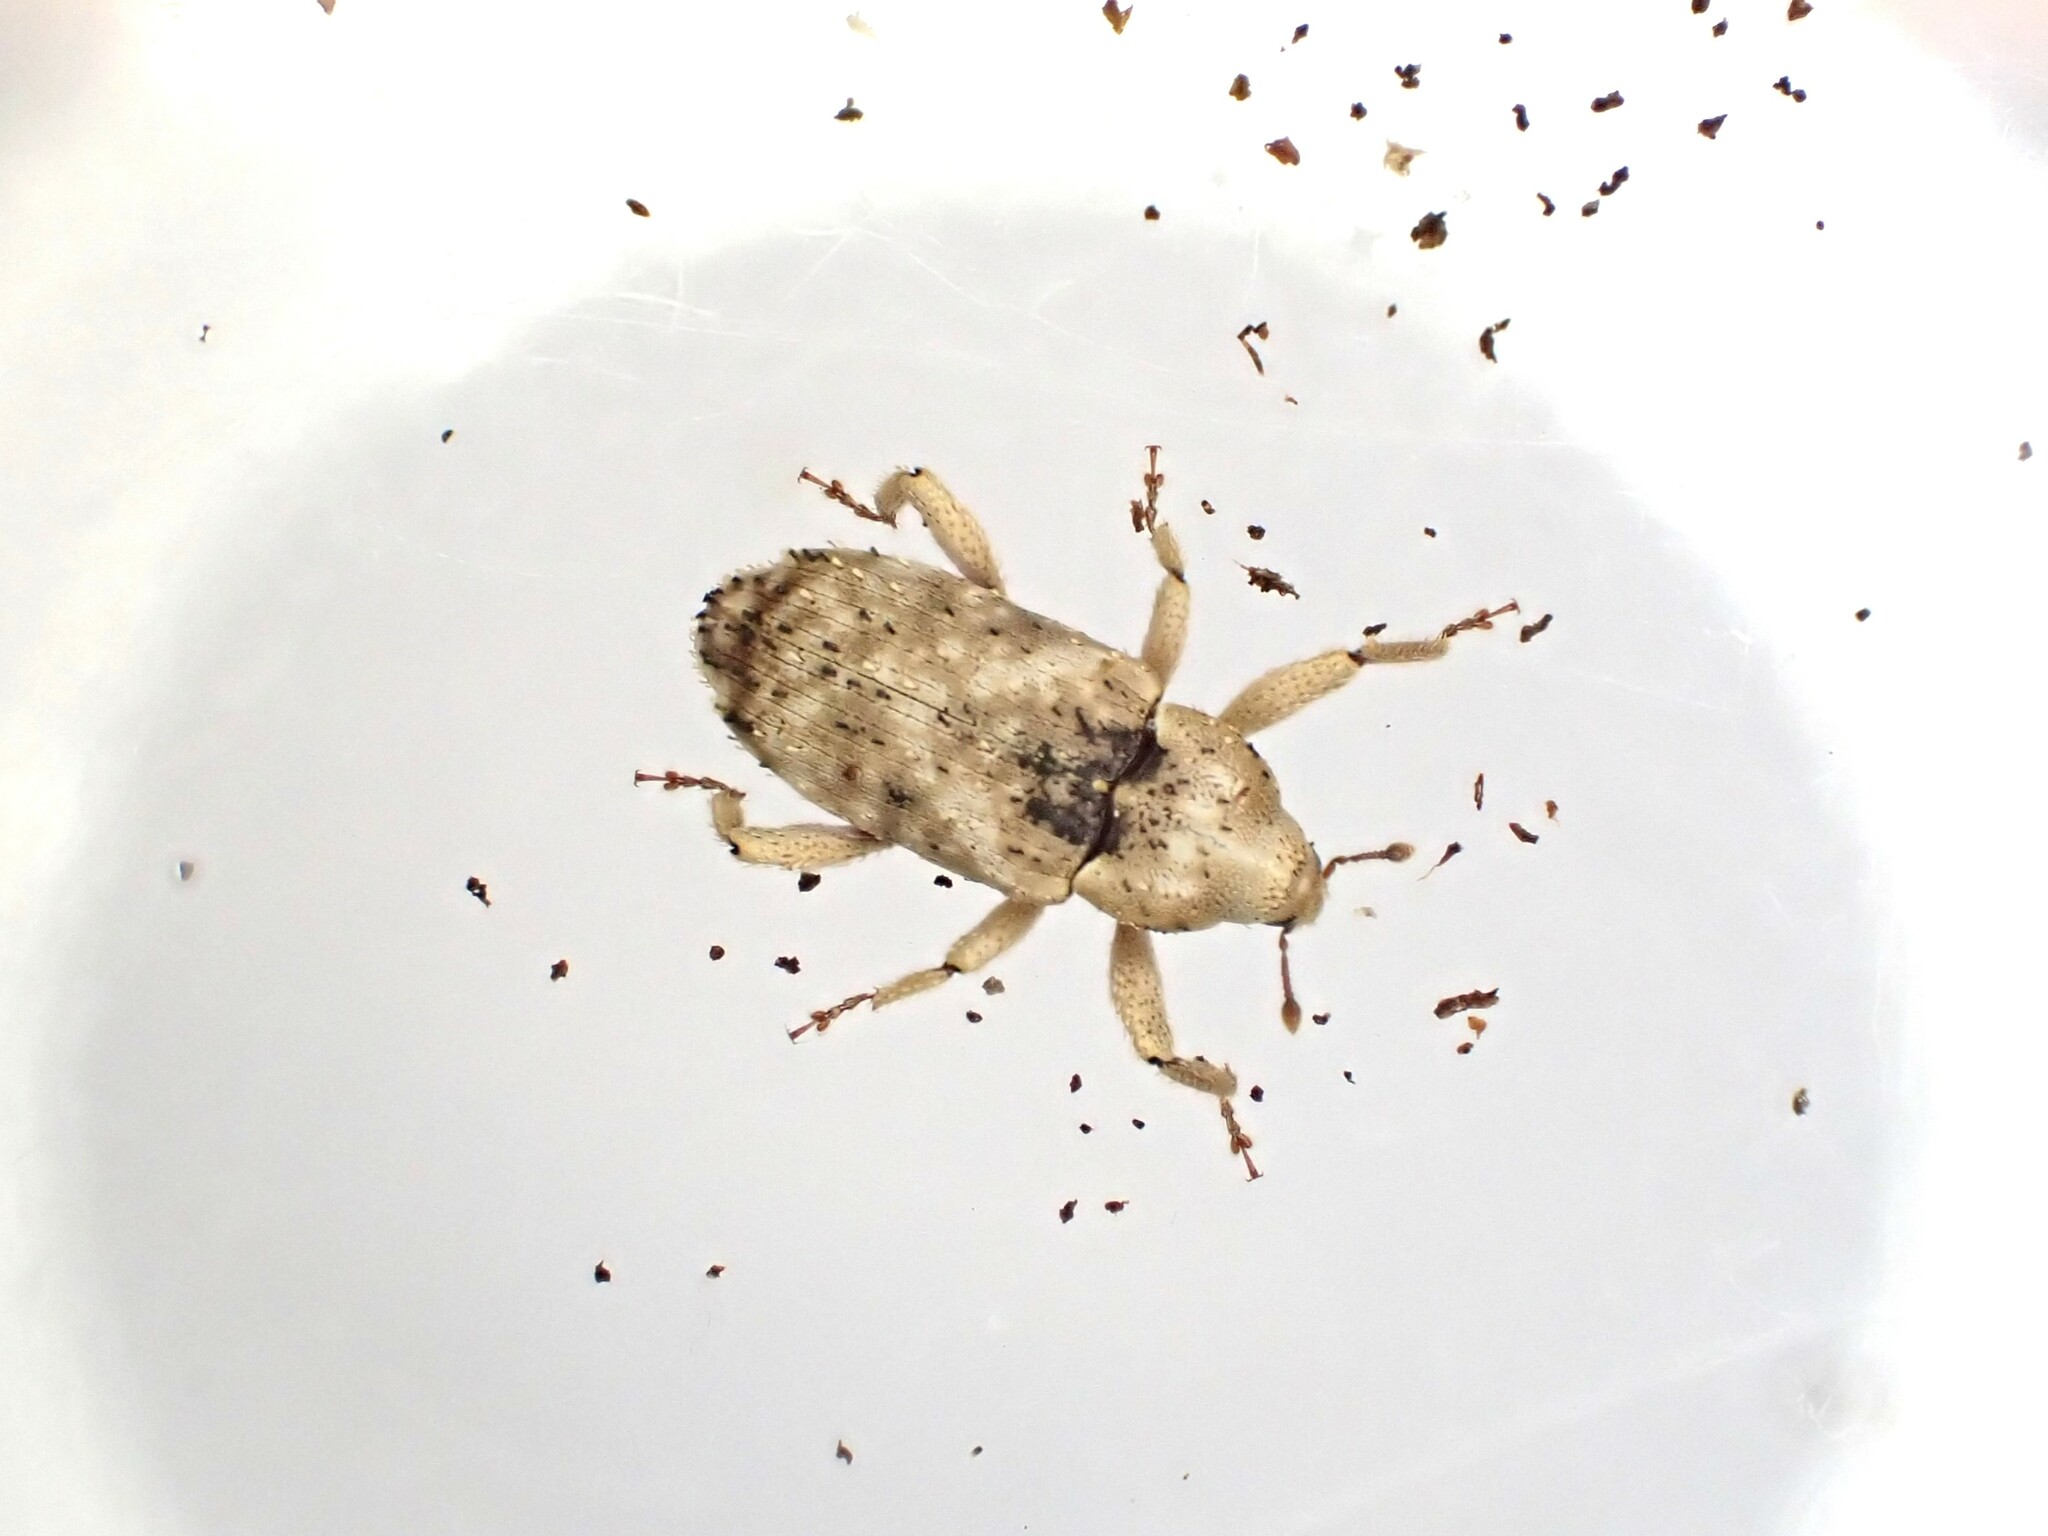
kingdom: Animalia
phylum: Arthropoda
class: Insecta
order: Coleoptera
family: Curculionidae
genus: Mitrastethus
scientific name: Mitrastethus baridioides
